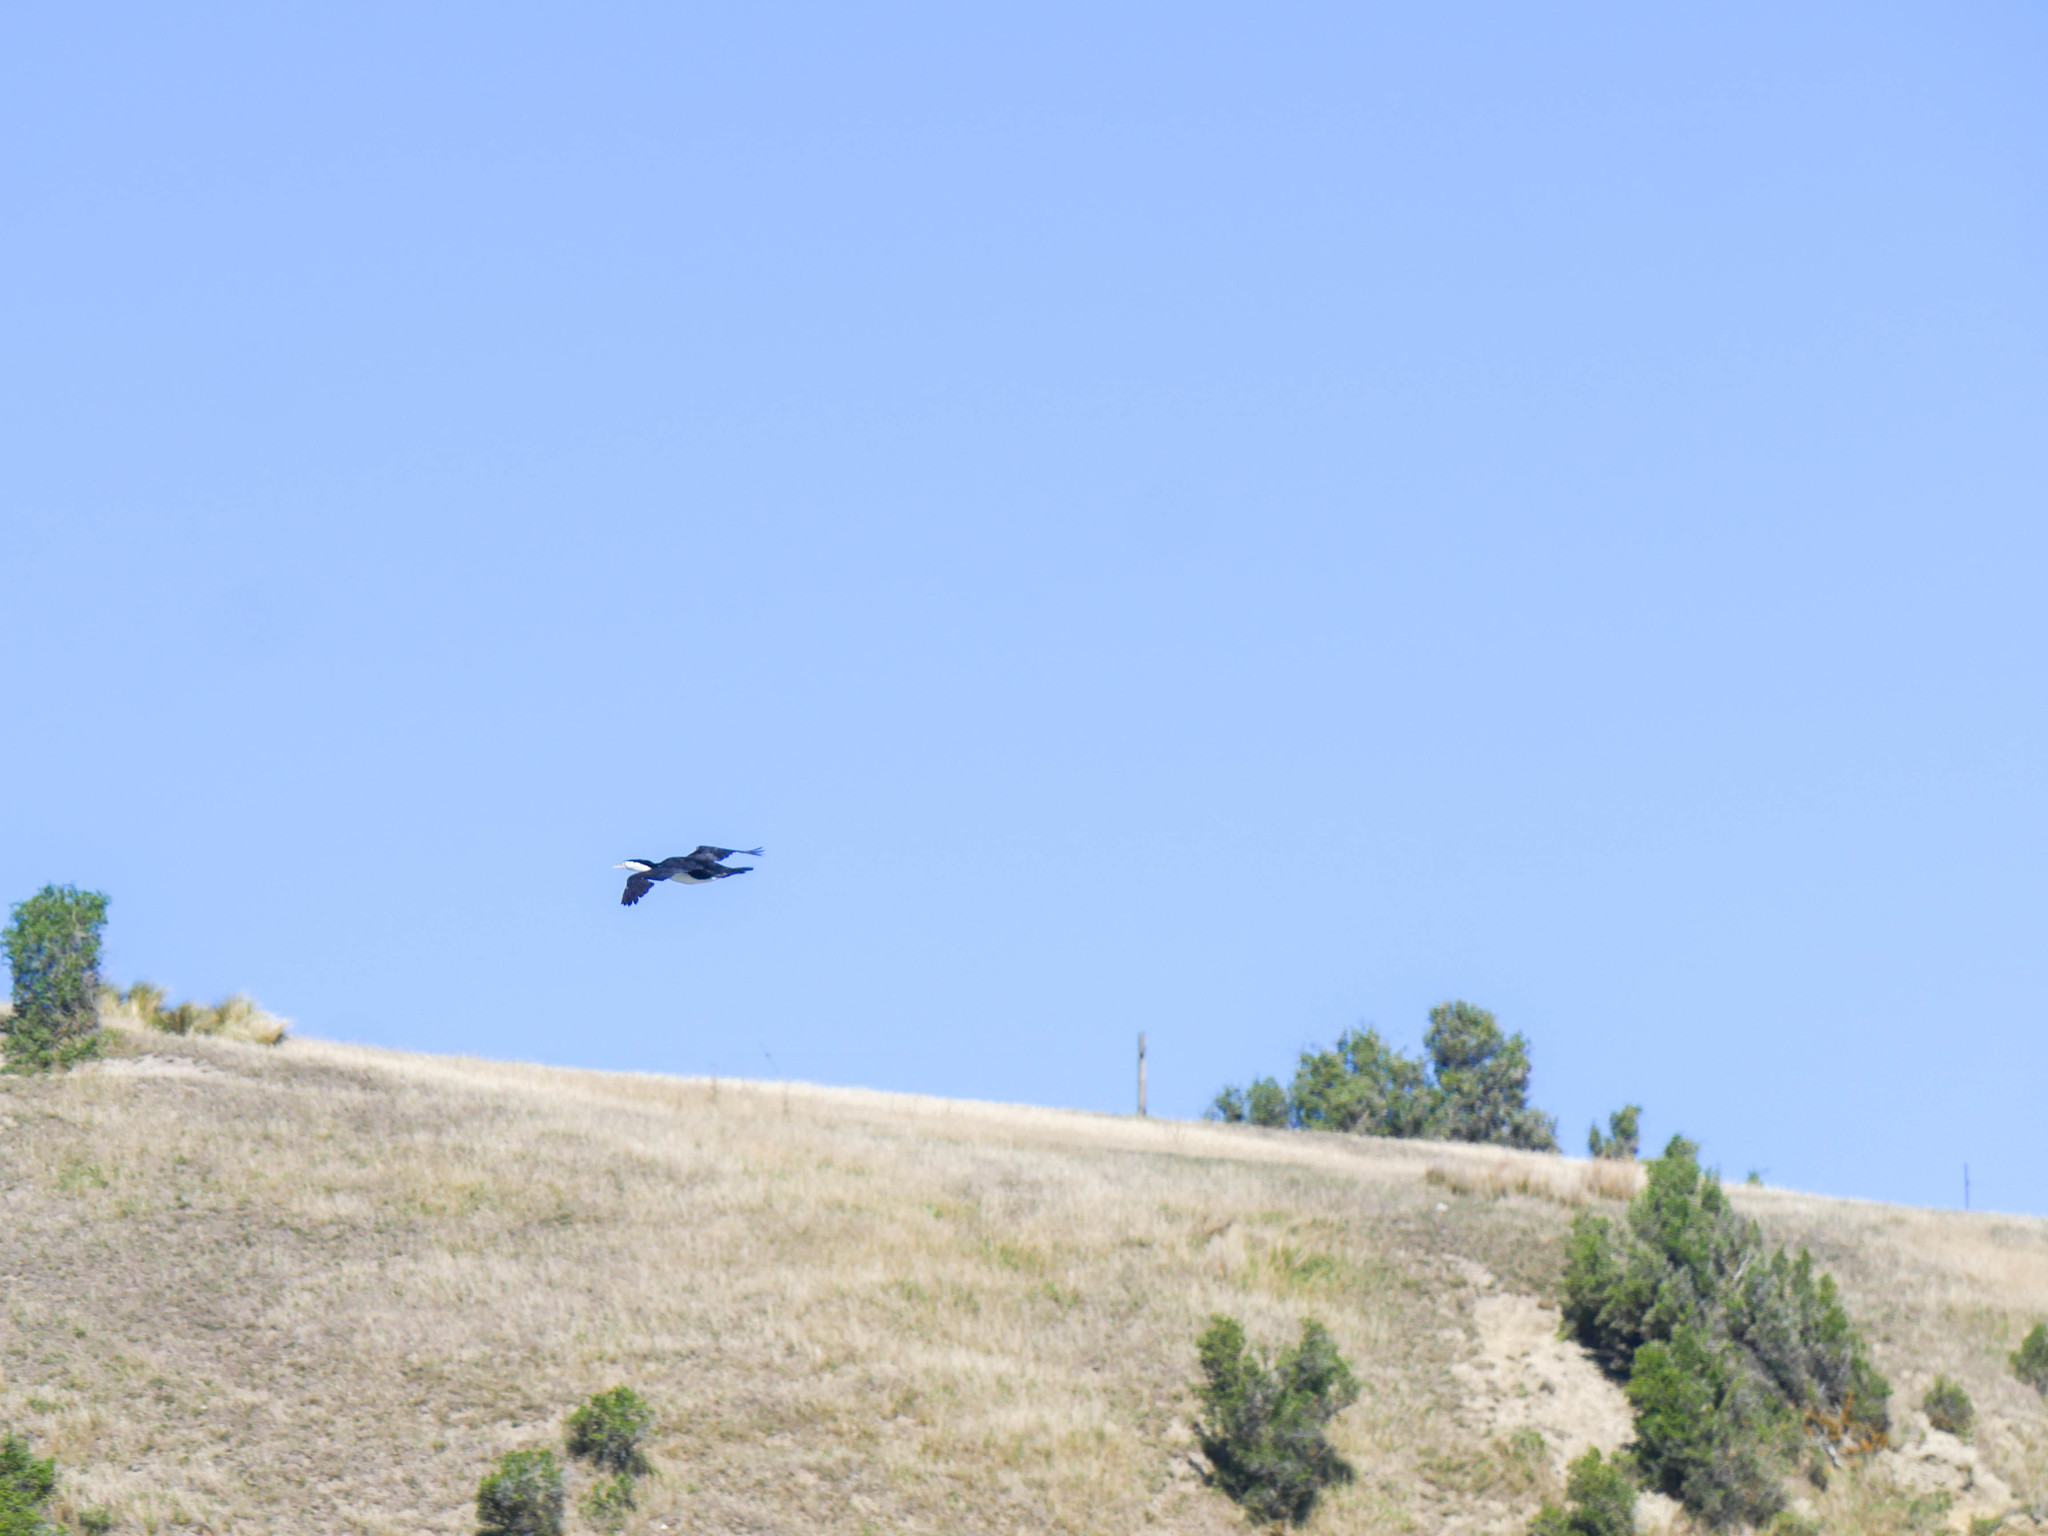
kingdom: Animalia
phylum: Chordata
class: Aves
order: Suliformes
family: Phalacrocoracidae
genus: Phalacrocorax
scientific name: Phalacrocorax varius
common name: Pied cormorant
